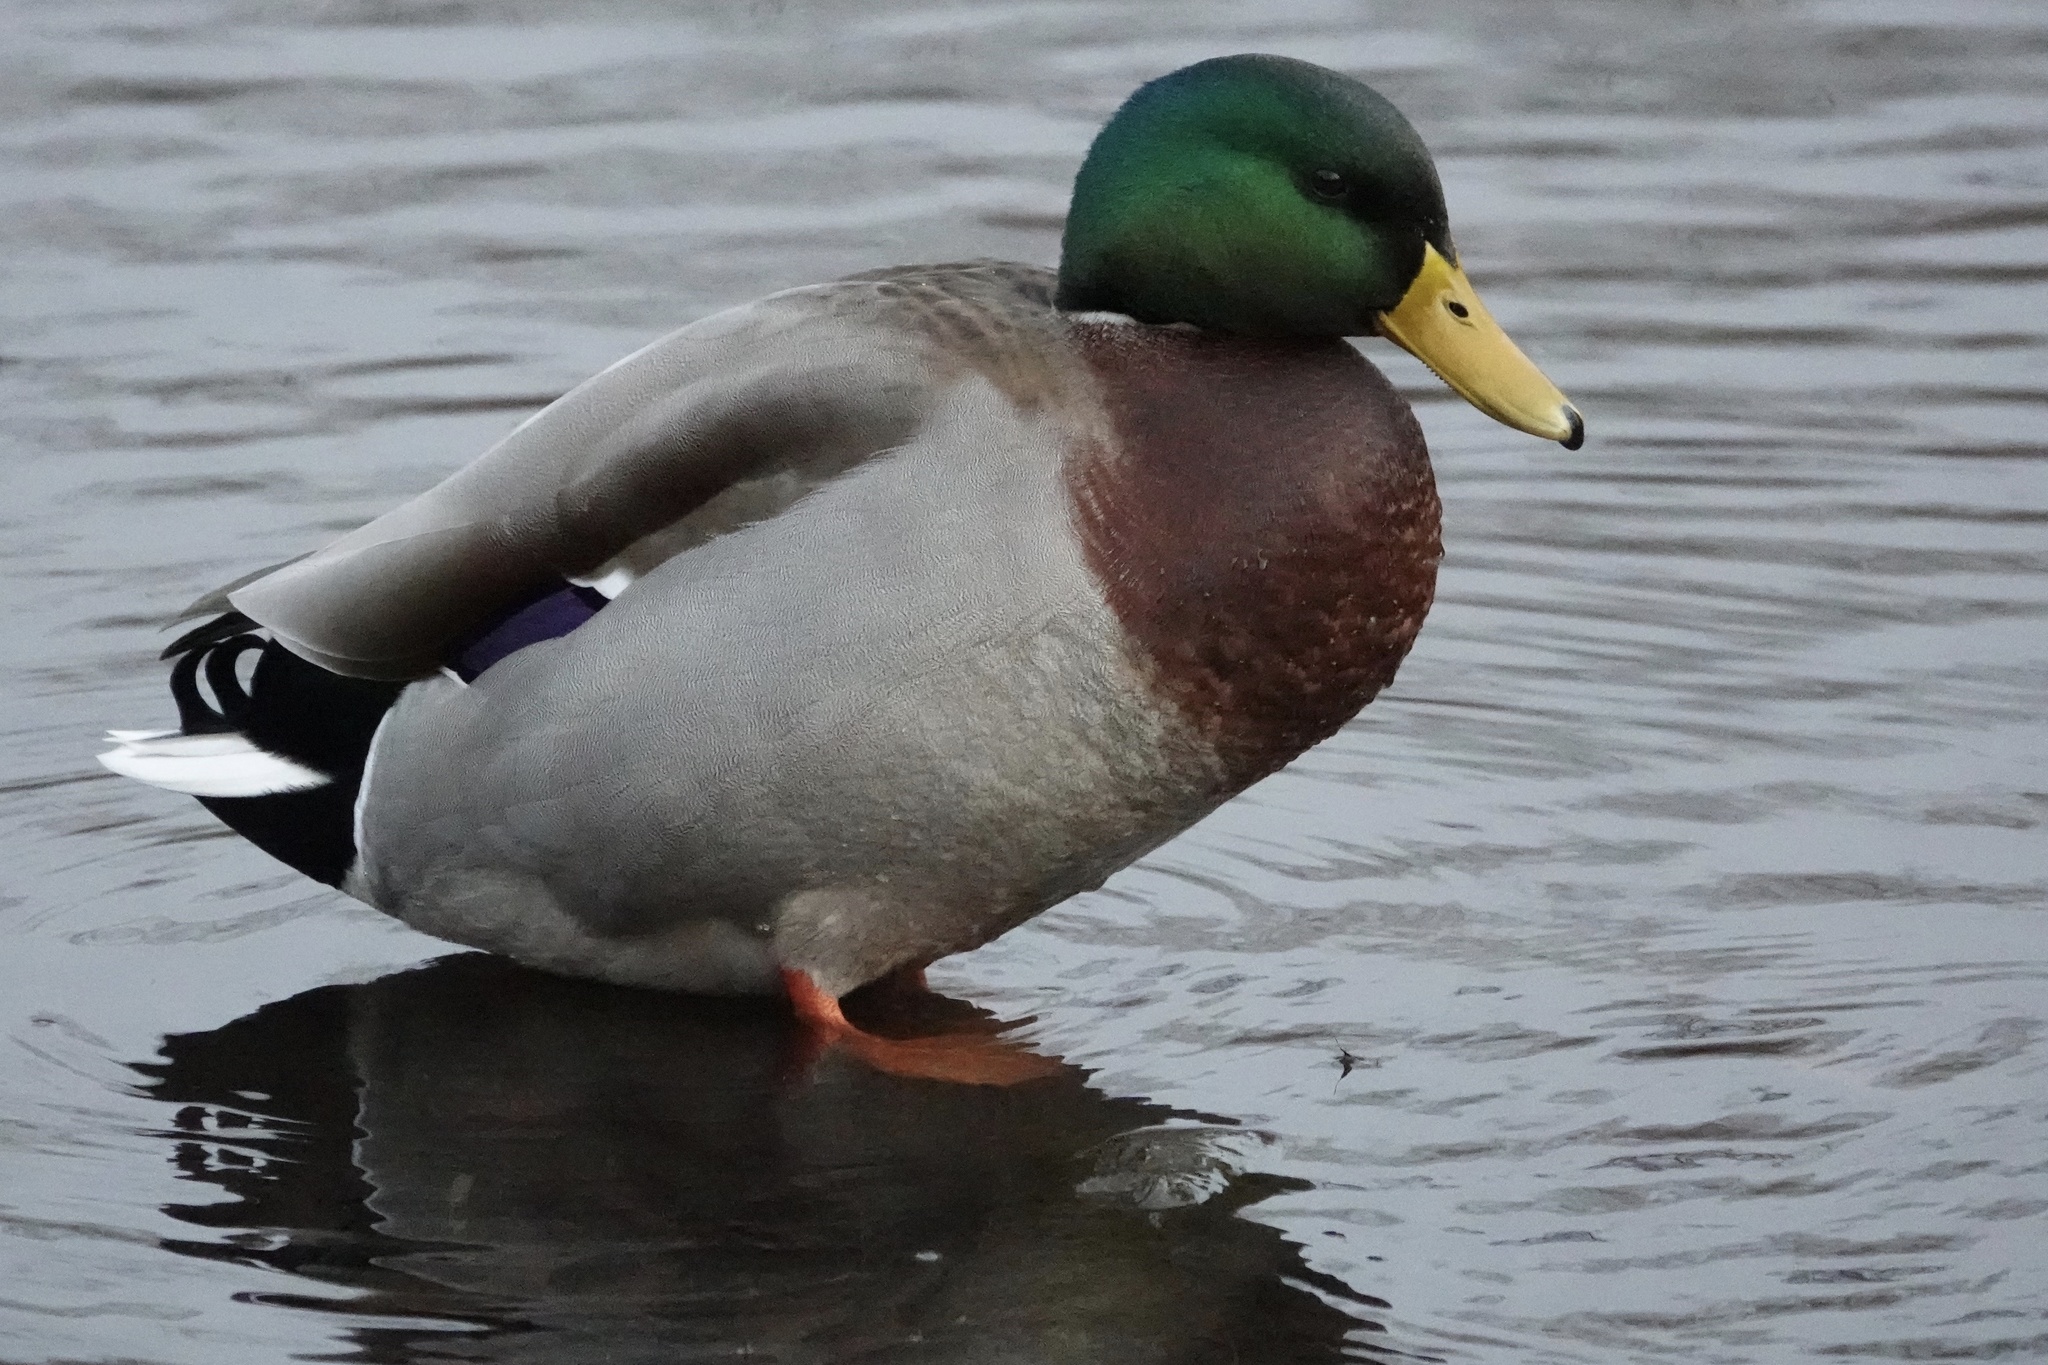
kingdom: Animalia
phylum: Chordata
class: Aves
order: Anseriformes
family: Anatidae
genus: Anas
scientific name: Anas platyrhynchos
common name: Mallard
